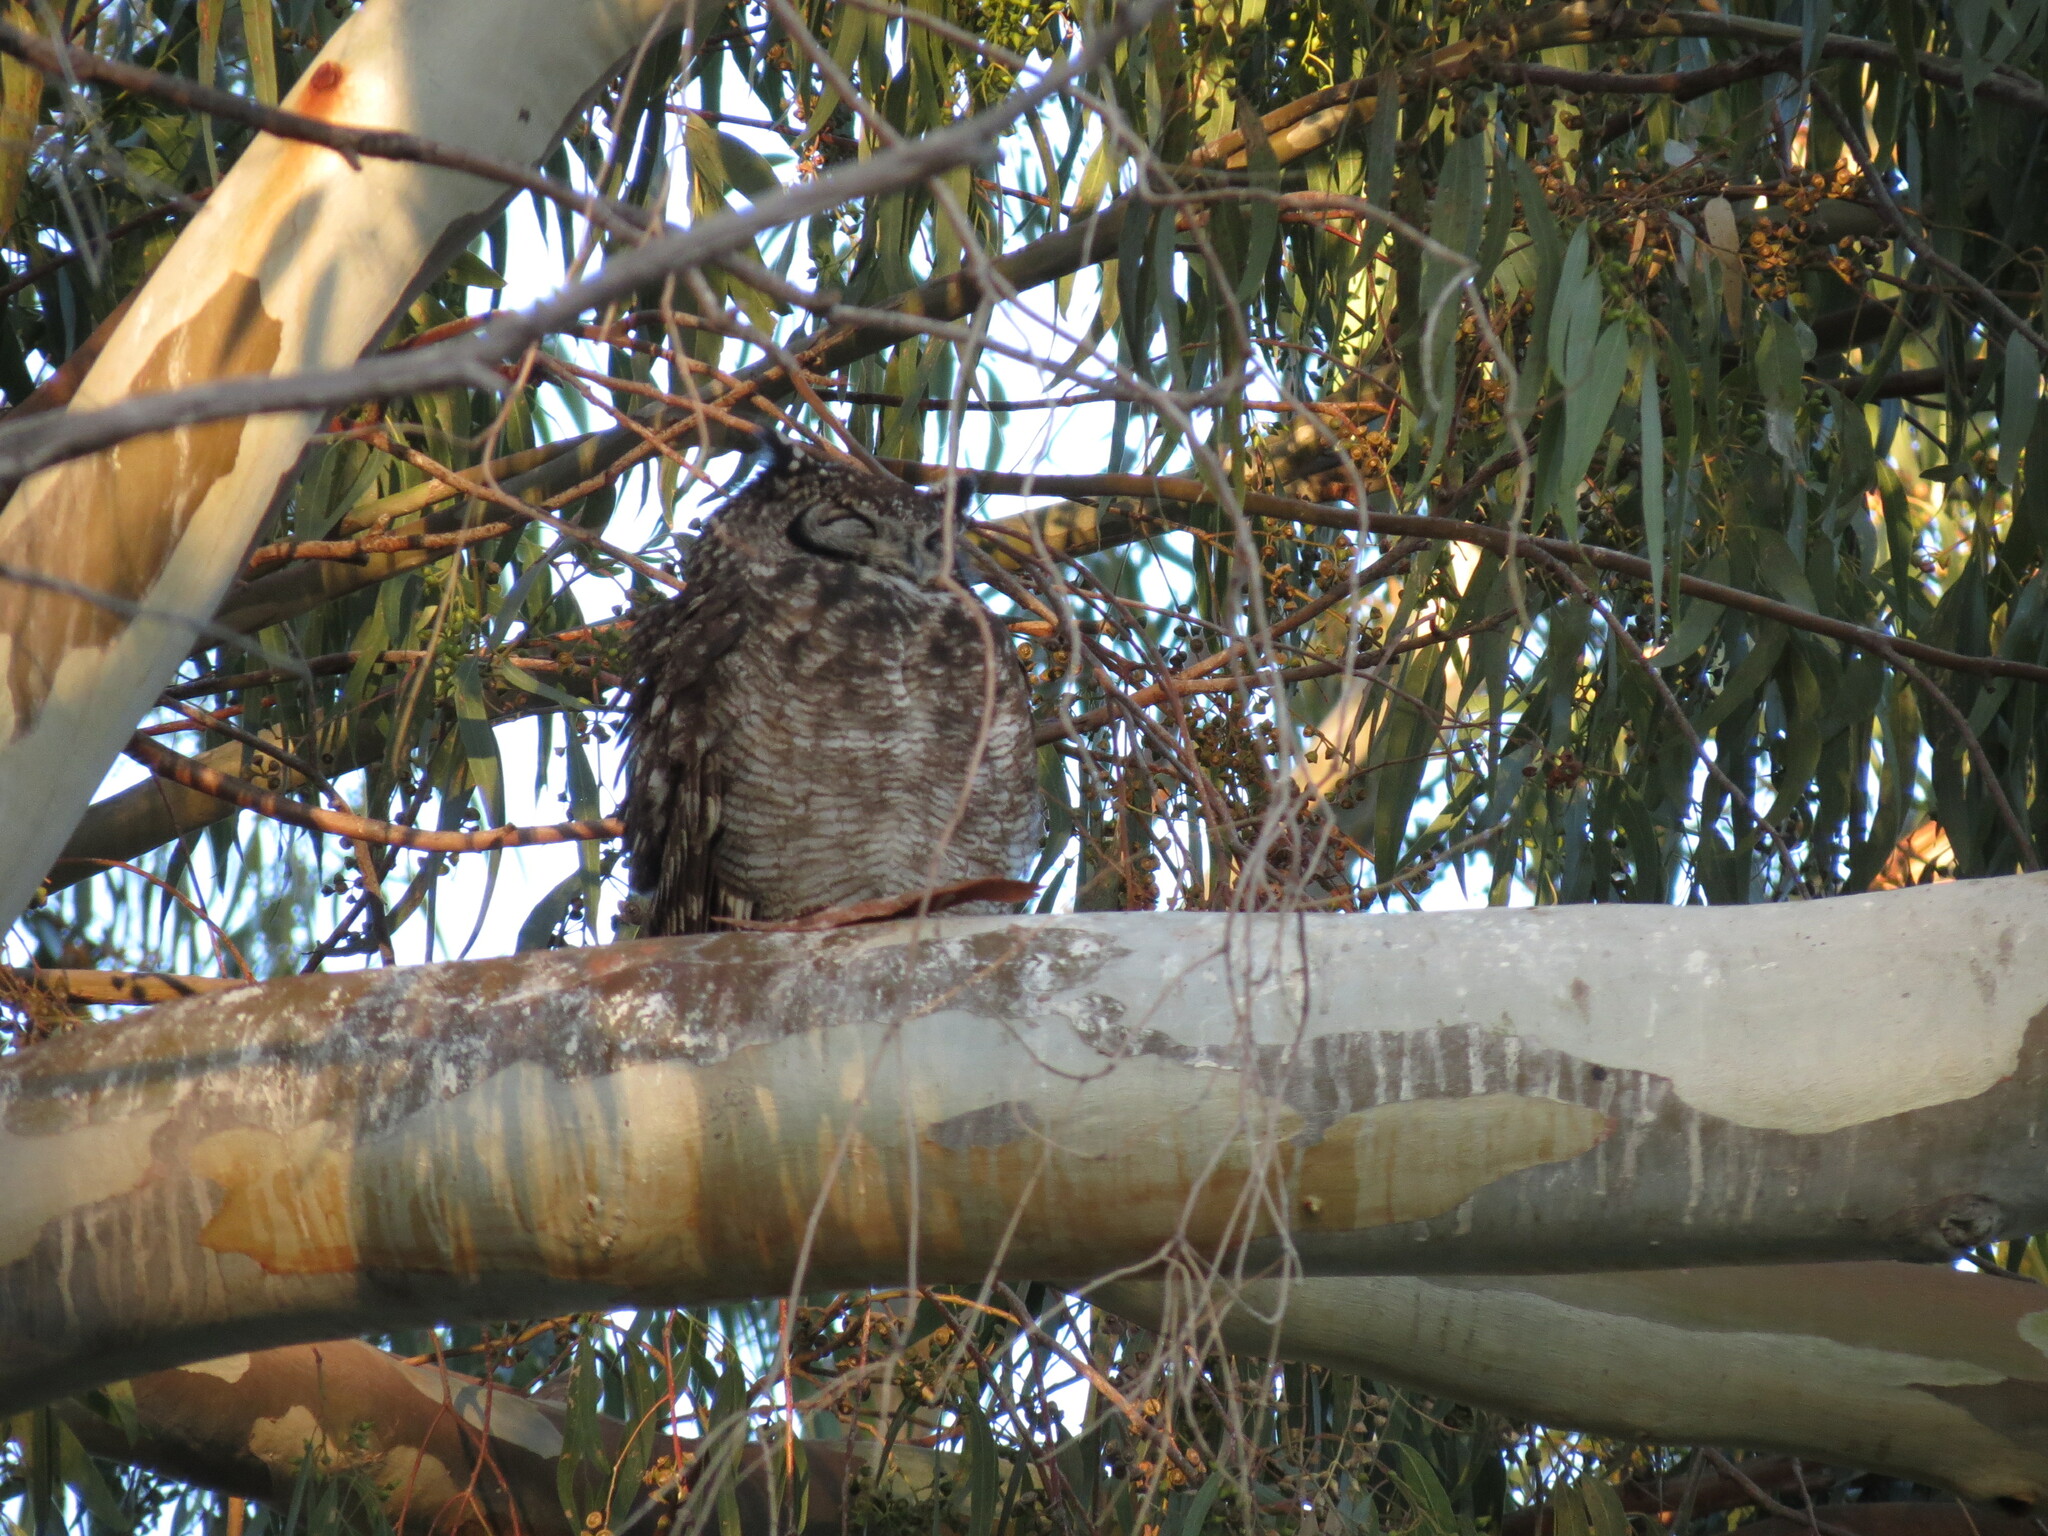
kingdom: Animalia
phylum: Chordata
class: Aves
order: Strigiformes
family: Strigidae
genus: Bubo
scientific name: Bubo africanus
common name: Spotted eagle-owl
